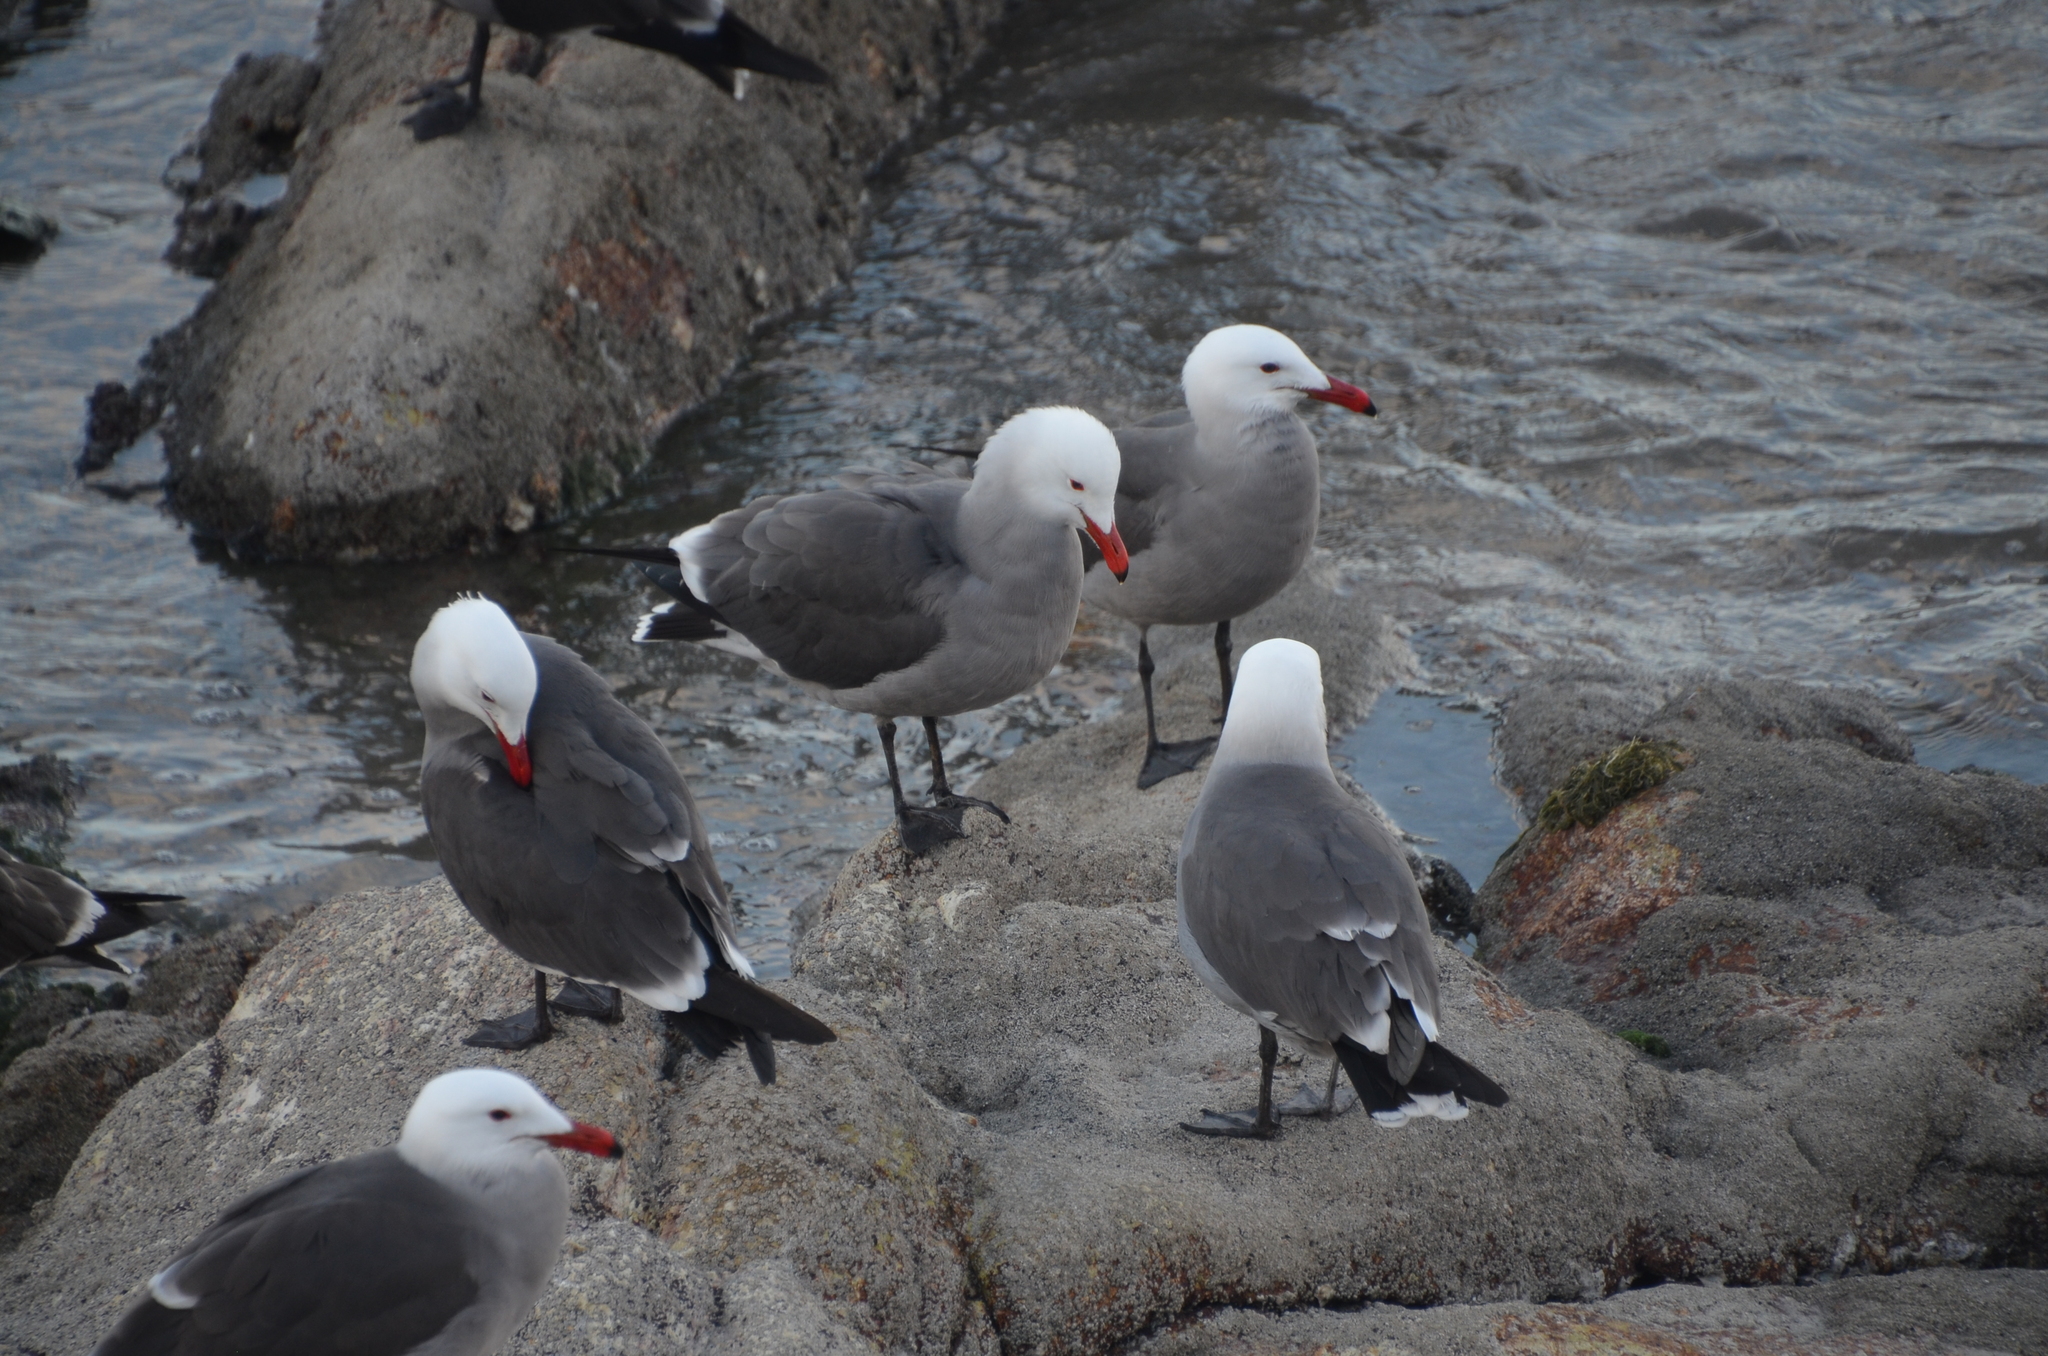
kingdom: Animalia
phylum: Chordata
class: Aves
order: Charadriiformes
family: Laridae
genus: Larus
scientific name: Larus heermanni
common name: Heermann's gull
